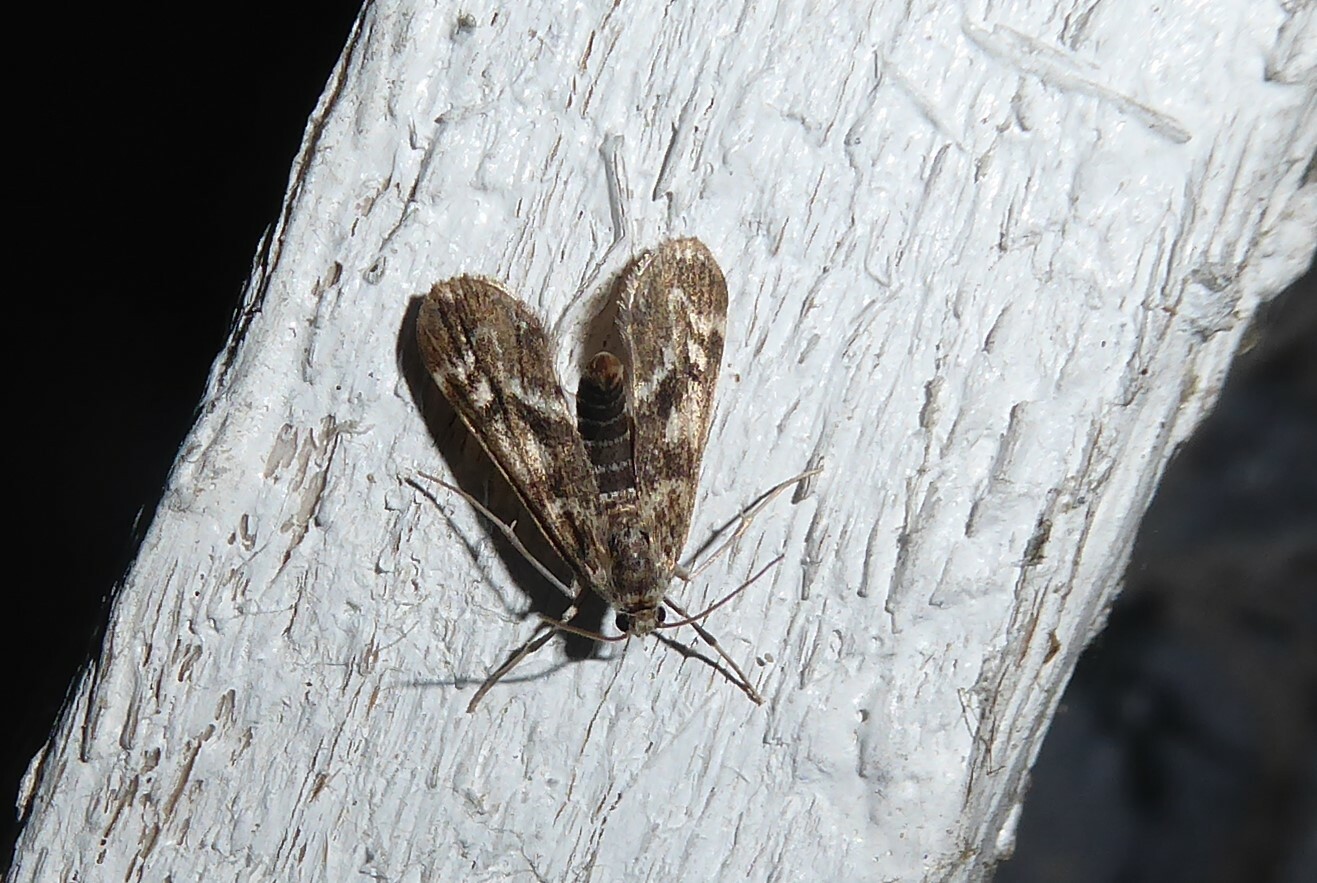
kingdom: Animalia
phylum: Arthropoda
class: Insecta
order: Lepidoptera
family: Crambidae
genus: Hygraula
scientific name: Hygraula nitens
